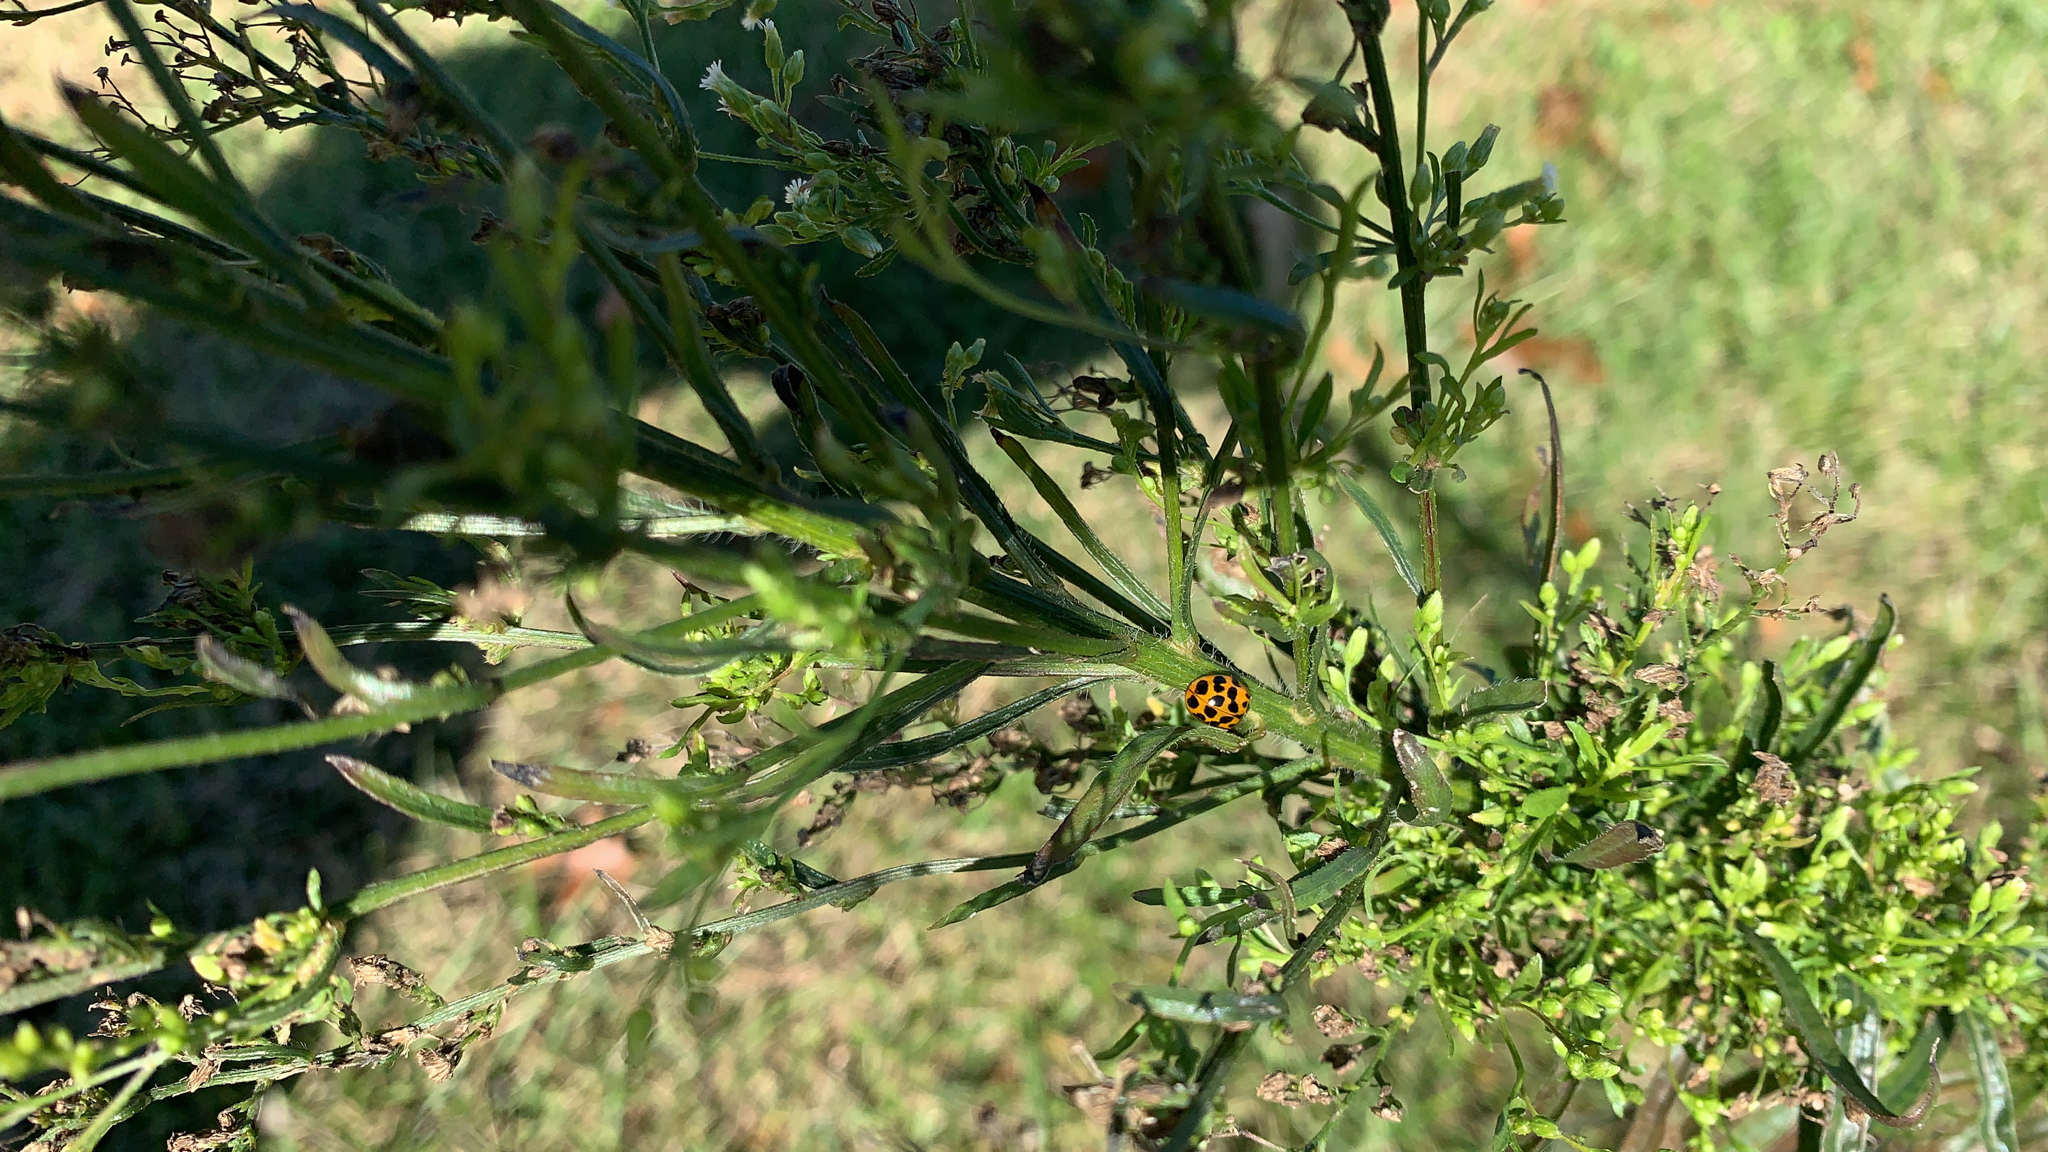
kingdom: Animalia
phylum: Arthropoda
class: Insecta
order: Coleoptera
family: Coccinellidae
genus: Harmonia
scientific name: Harmonia axyridis
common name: Harlequin ladybird
